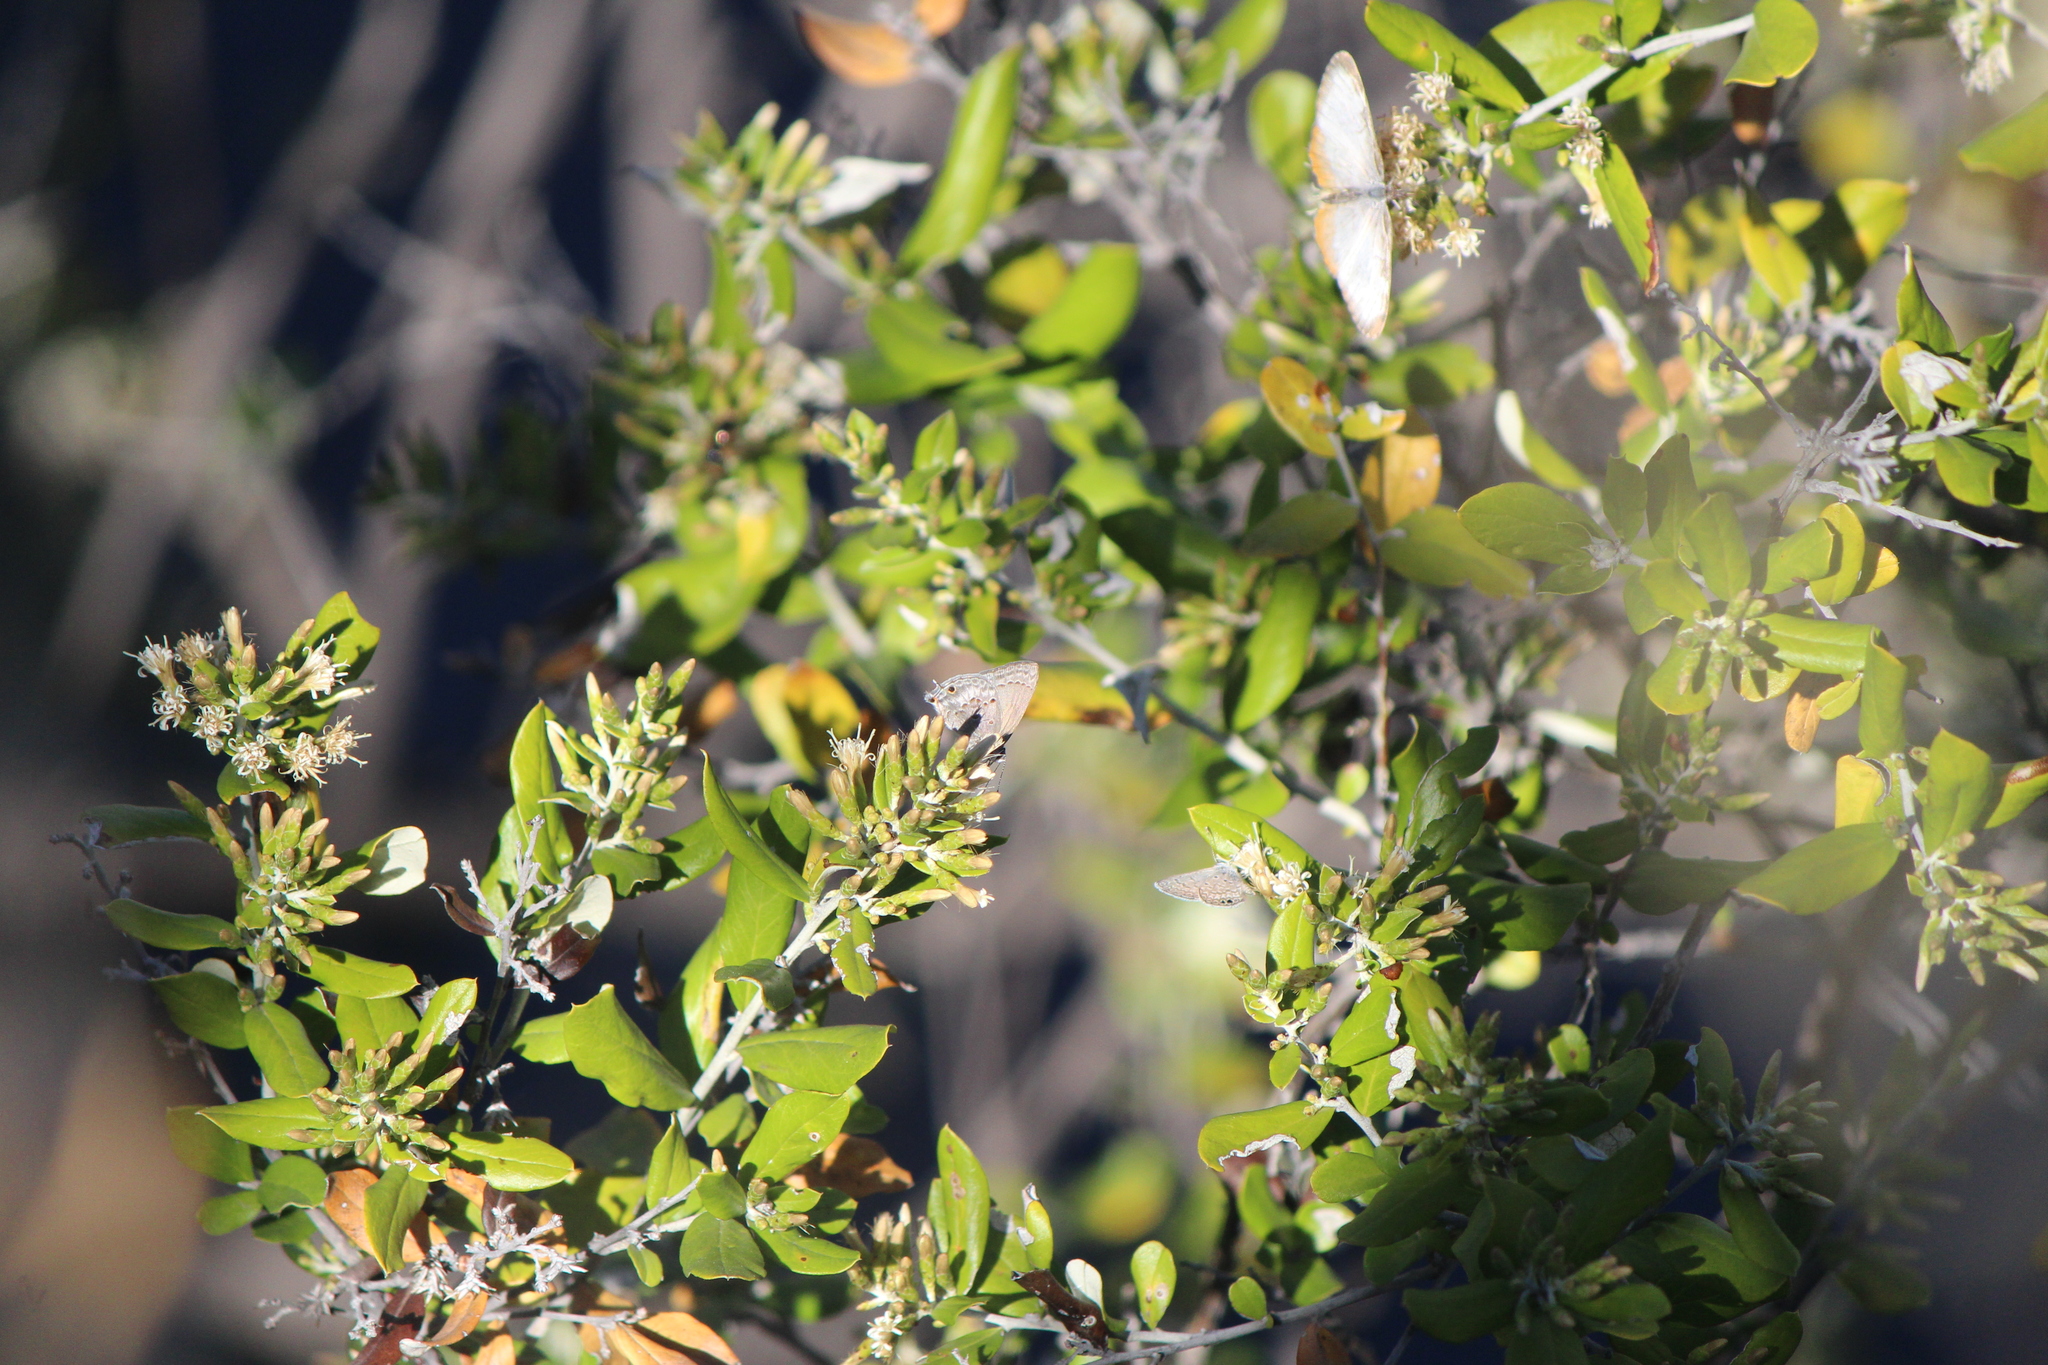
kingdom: Animalia
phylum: Arthropoda
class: Insecta
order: Lepidoptera
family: Lycaenidae
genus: Callicista
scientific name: Callicista columella
